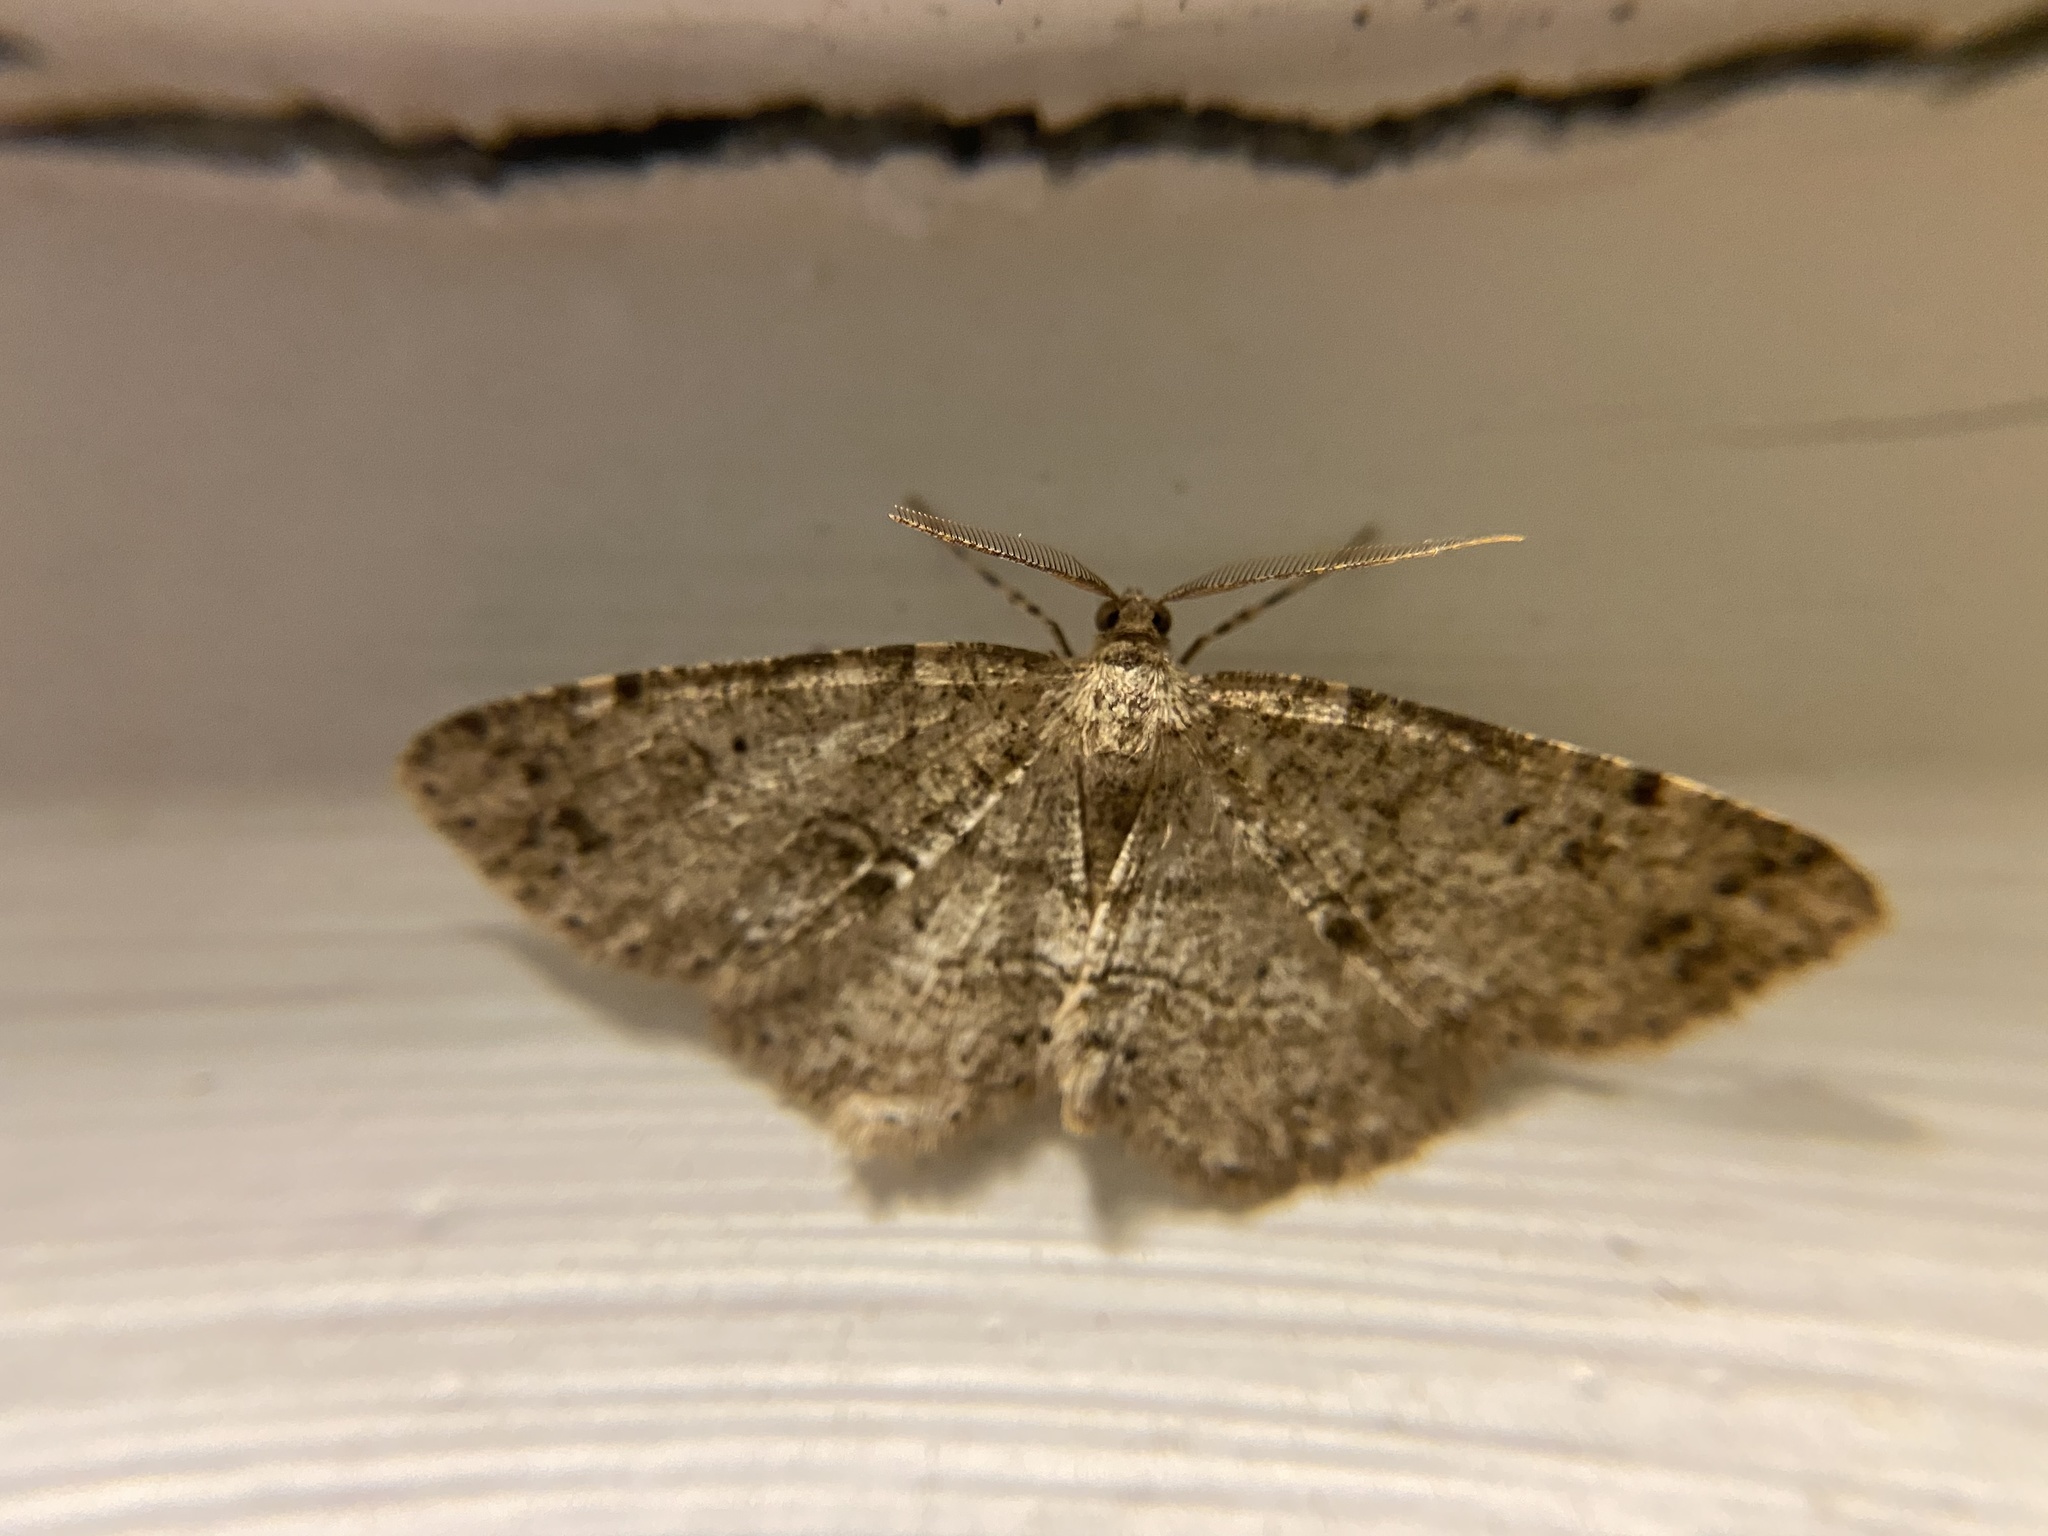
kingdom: Animalia
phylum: Arthropoda
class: Insecta
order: Lepidoptera
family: Geometridae
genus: Melanolophia
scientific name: Melanolophia canadaria
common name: Canadian melanolophia
